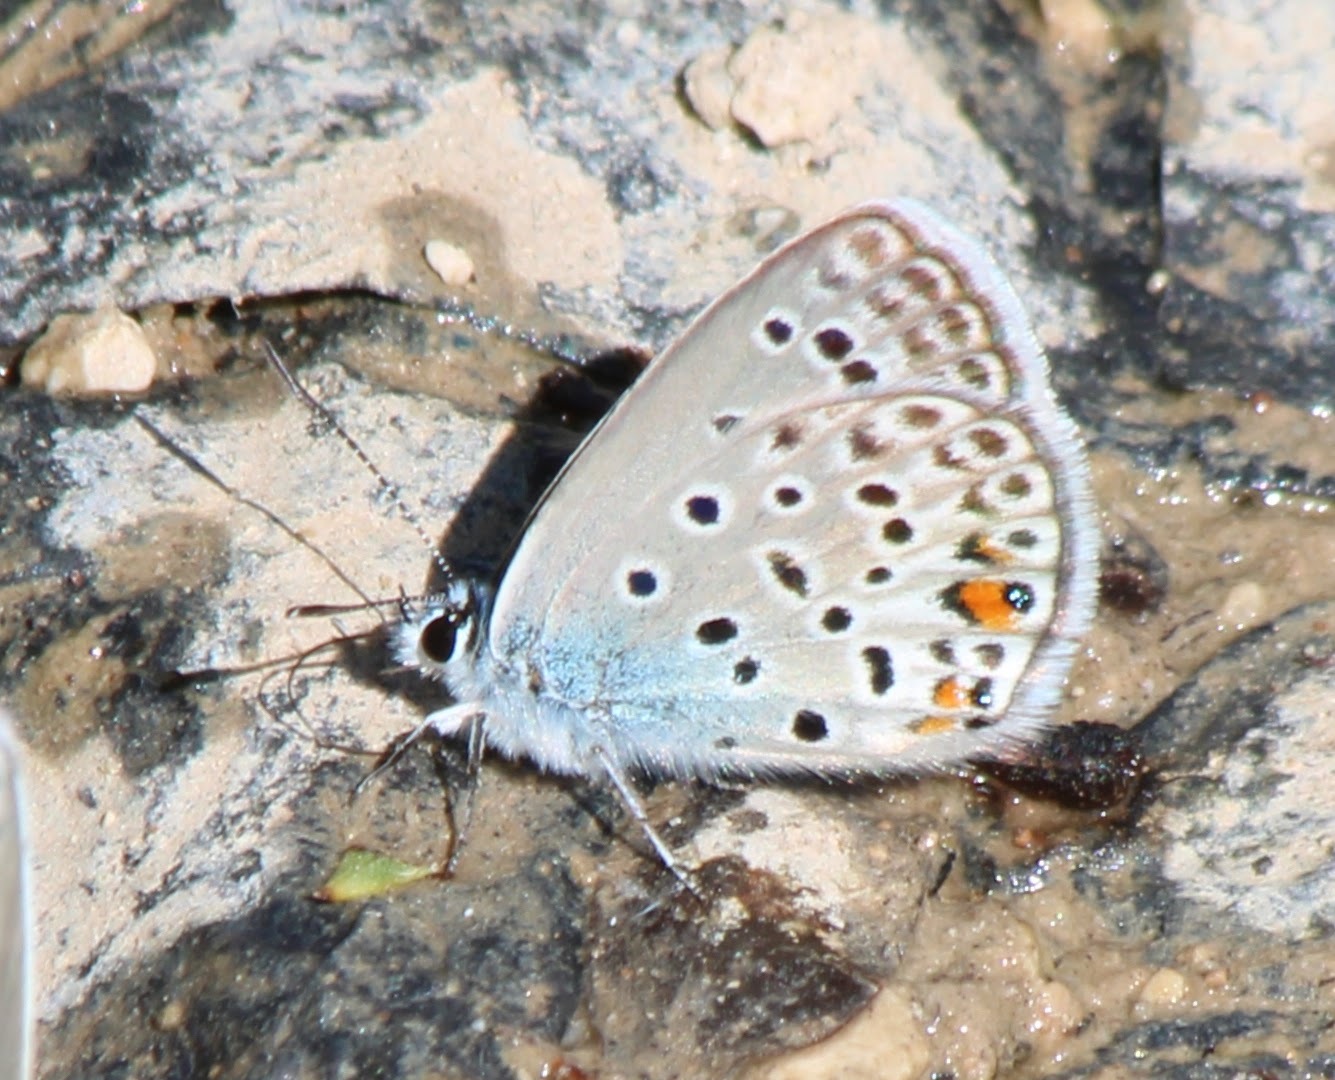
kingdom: Animalia
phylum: Arthropoda
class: Insecta
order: Lepidoptera
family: Lycaenidae
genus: Plebejidea
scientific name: Plebejidea loewi
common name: Loew's blue
